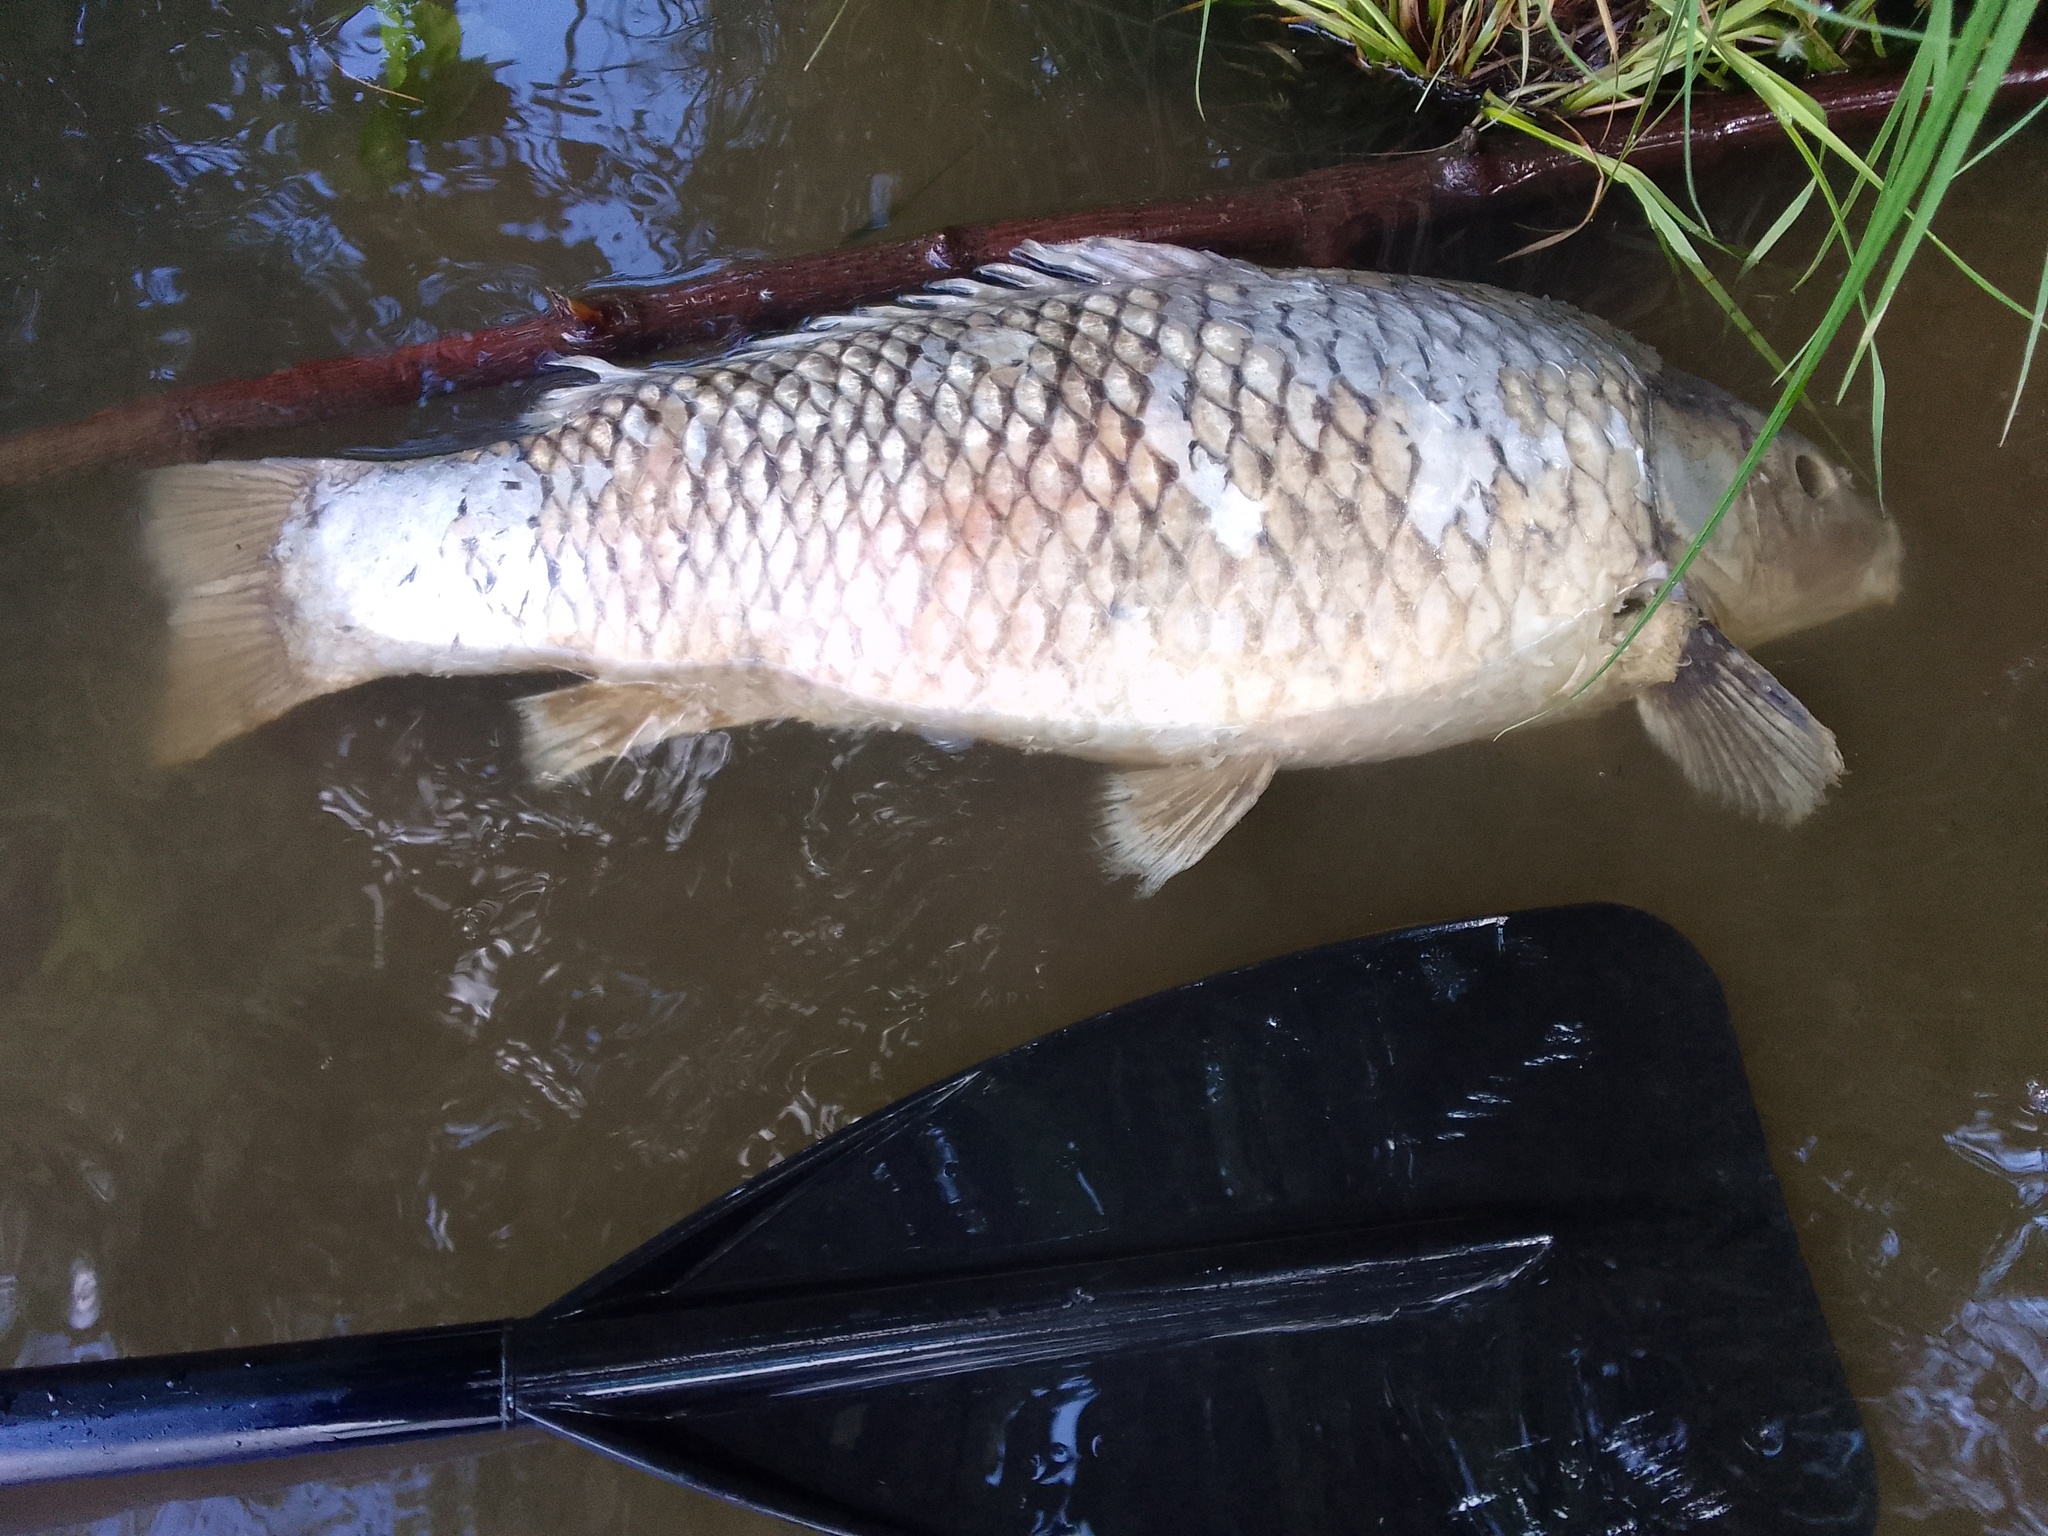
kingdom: Animalia
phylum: Chordata
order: Cypriniformes
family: Cyprinidae
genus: Cyprinus
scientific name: Cyprinus carpio
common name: Common carp
